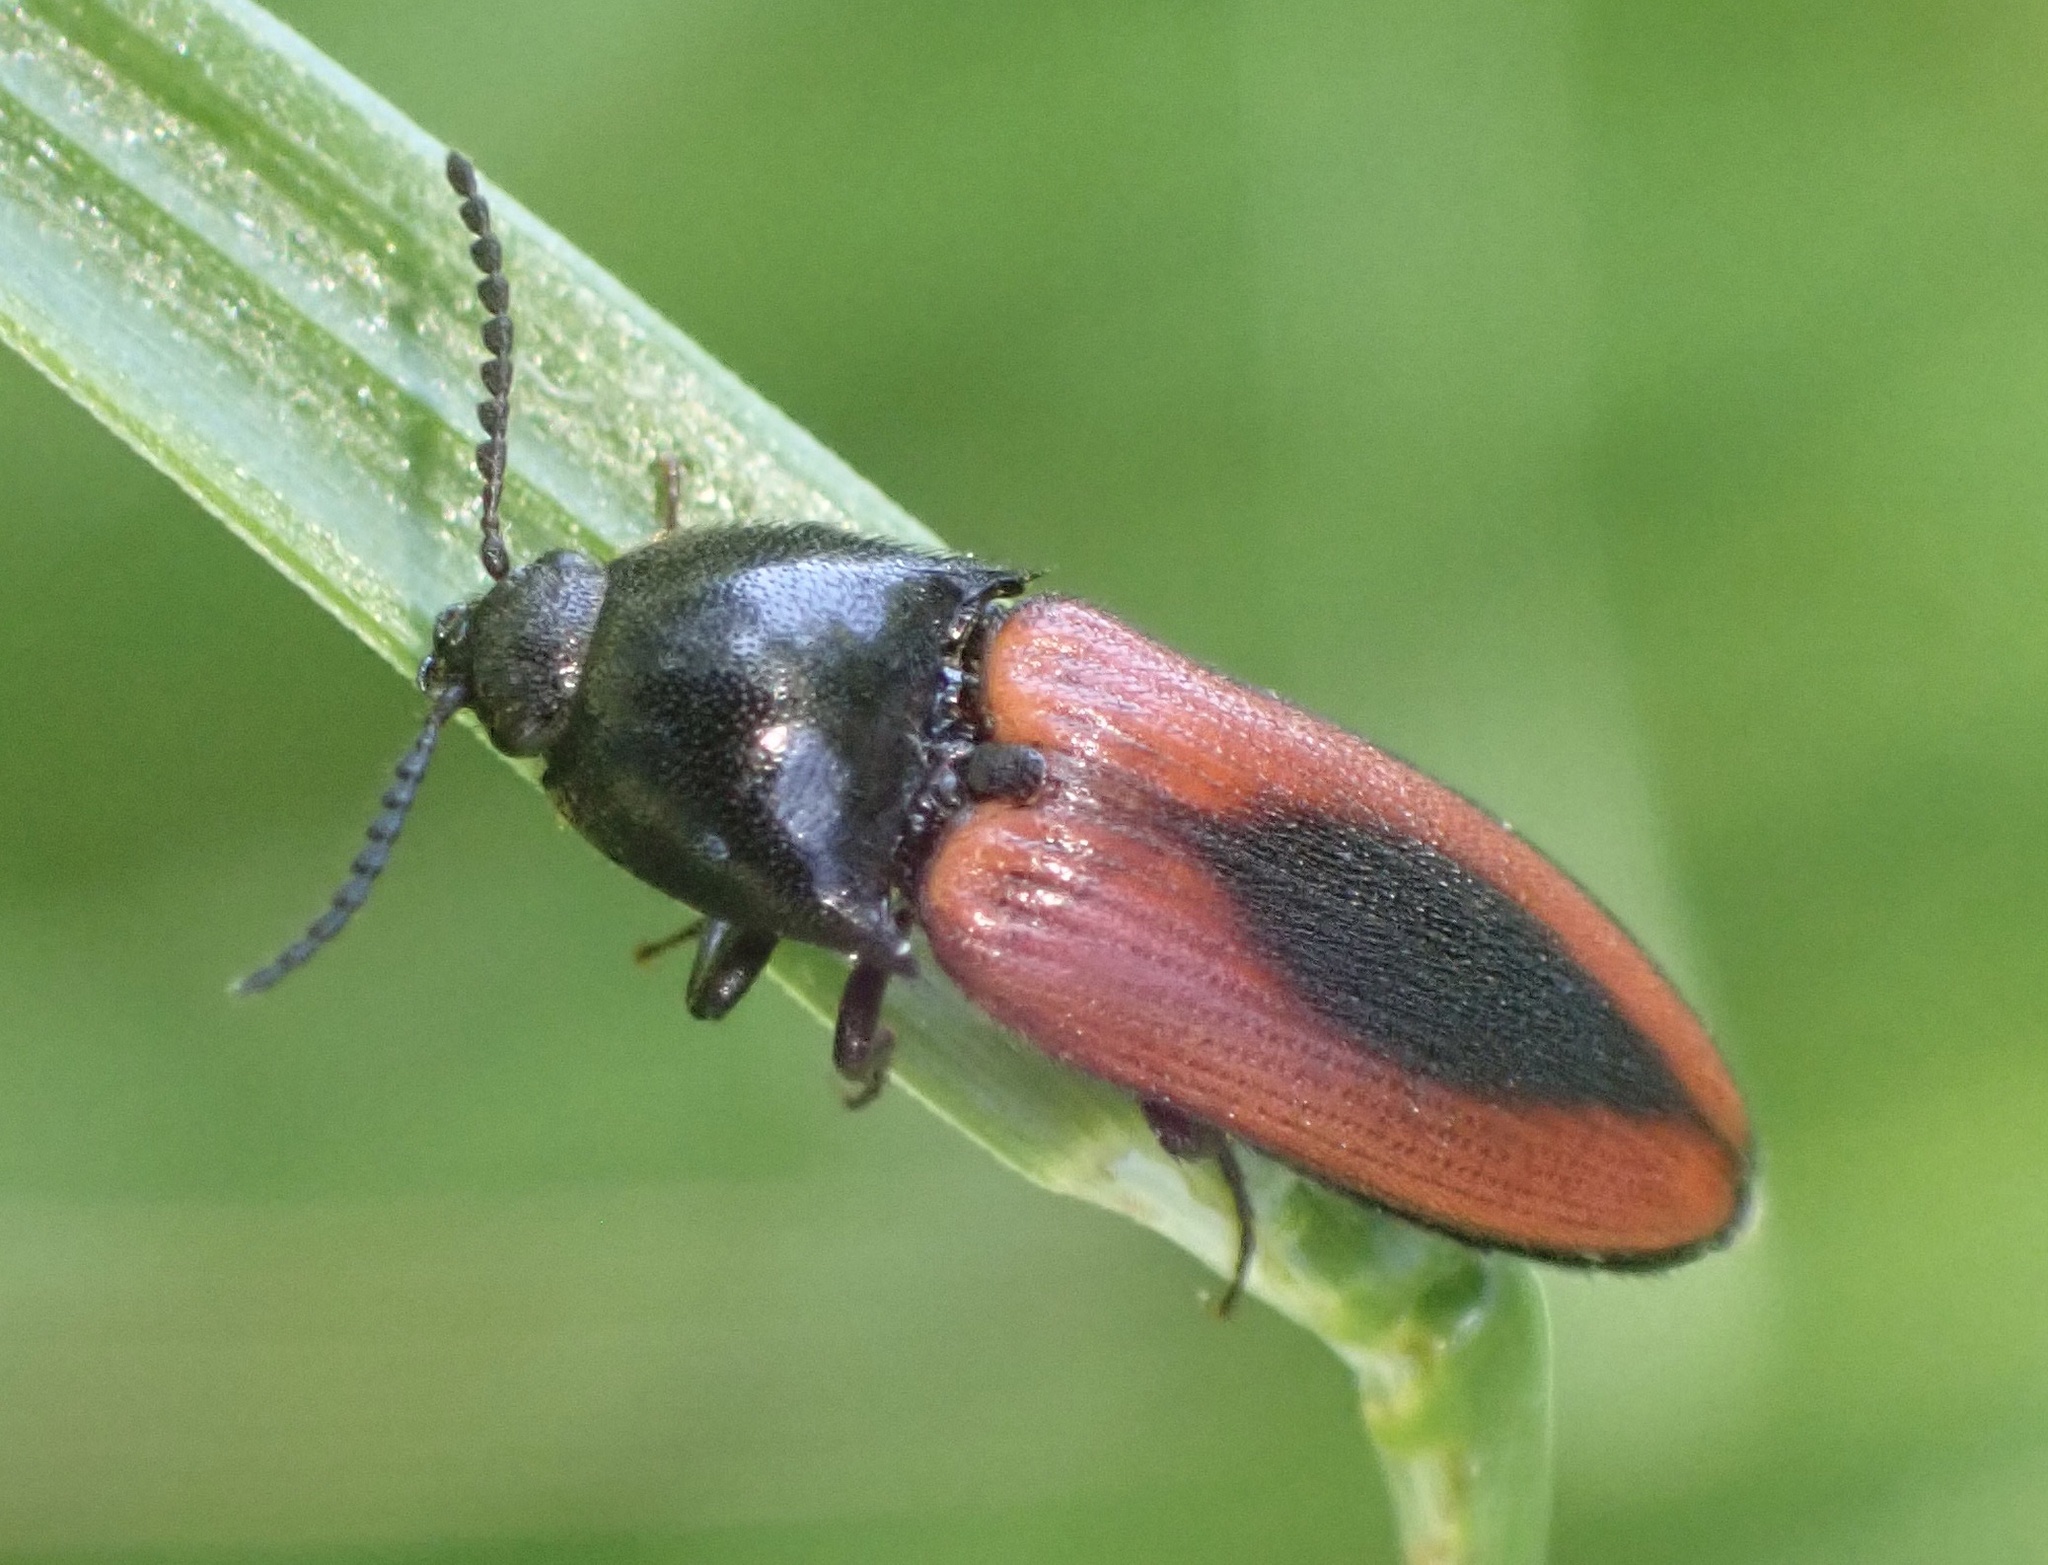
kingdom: Animalia
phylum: Arthropoda
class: Insecta
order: Coleoptera
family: Elateridae
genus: Ampedus
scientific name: Ampedus sanguinolentus
